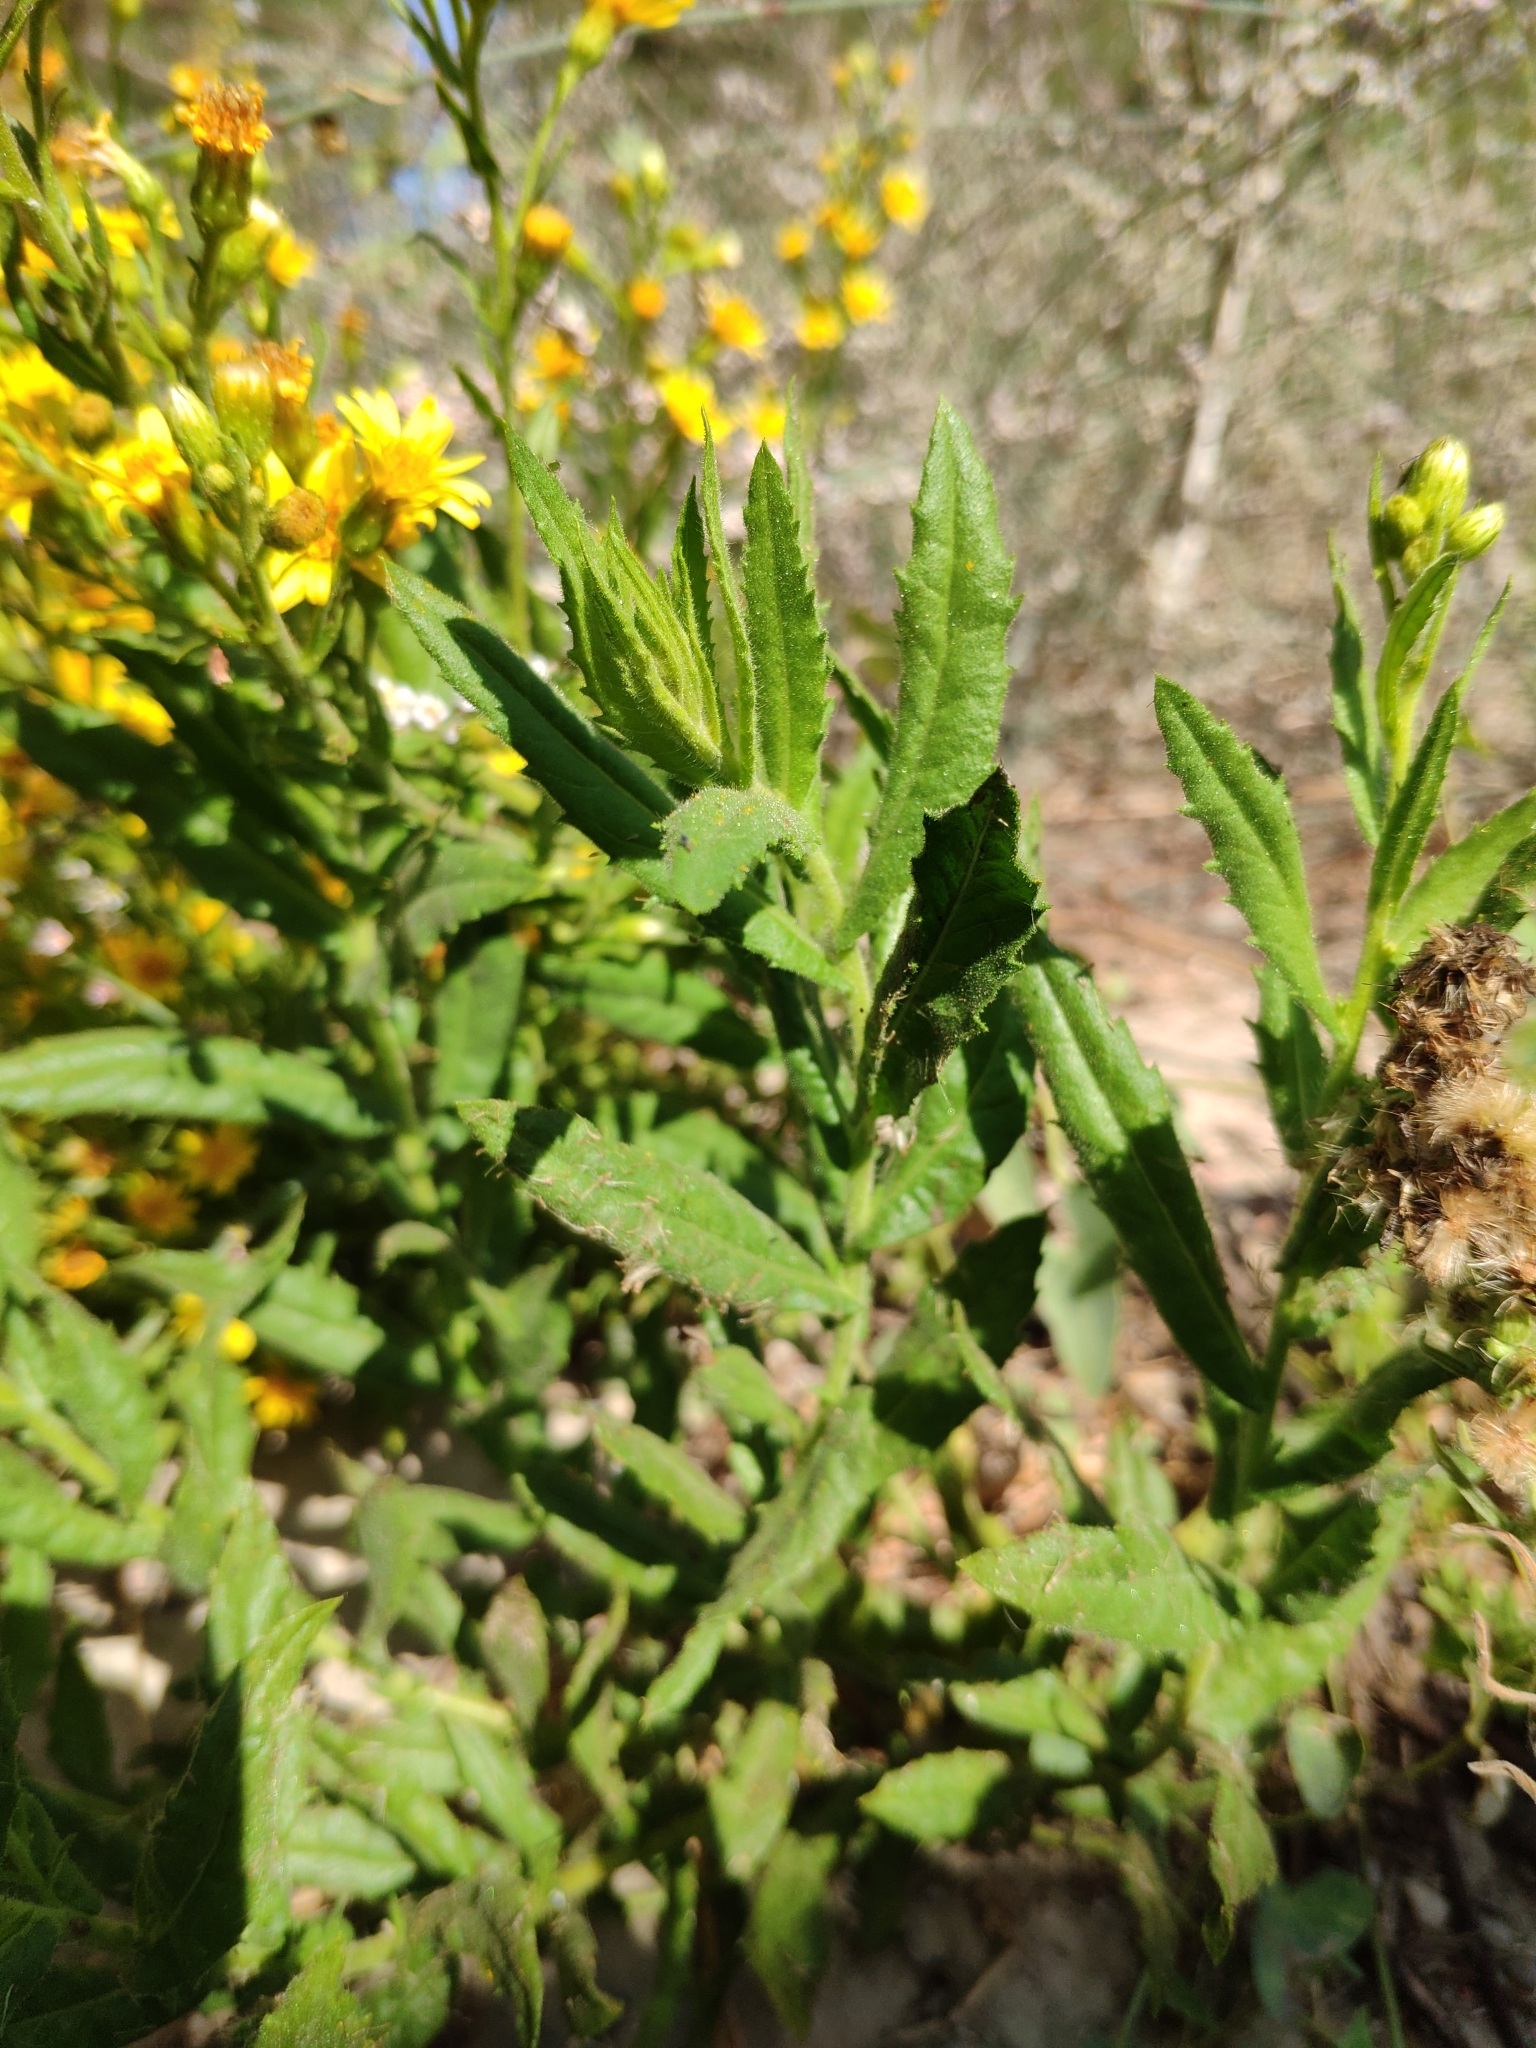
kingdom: Plantae
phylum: Tracheophyta
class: Magnoliopsida
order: Asterales
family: Asteraceae
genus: Dittrichia
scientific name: Dittrichia viscosa
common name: Woody fleabane
